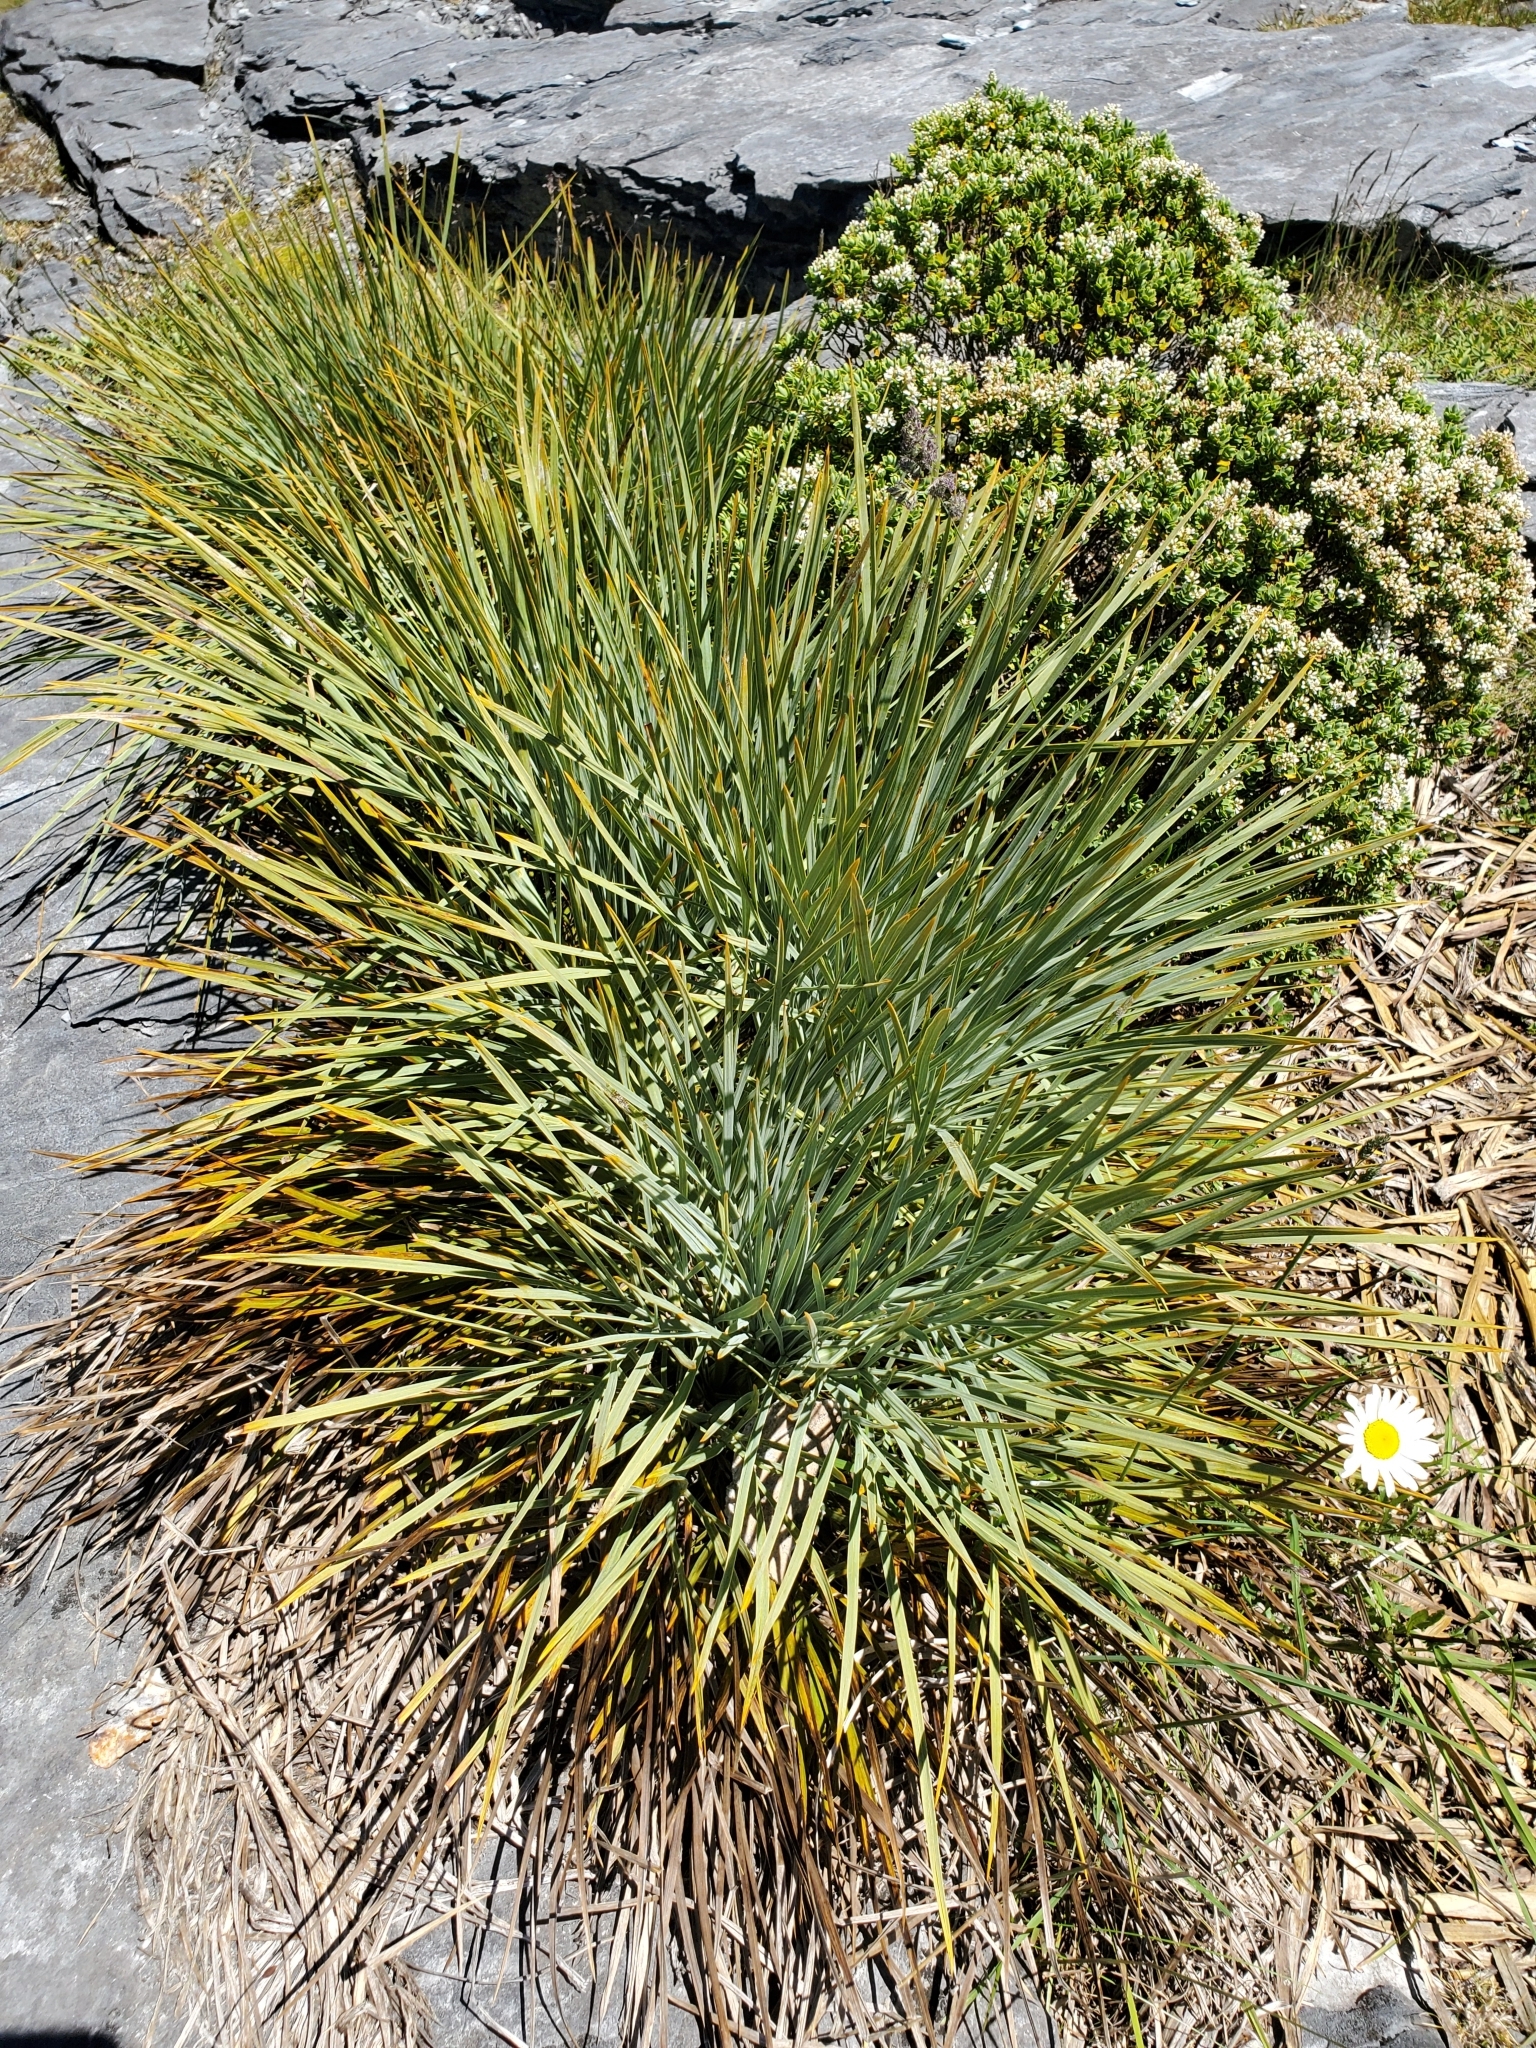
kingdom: Plantae
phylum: Tracheophyta
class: Magnoliopsida
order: Apiales
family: Apiaceae
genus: Aciphylla
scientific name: Aciphylla glaucescens
